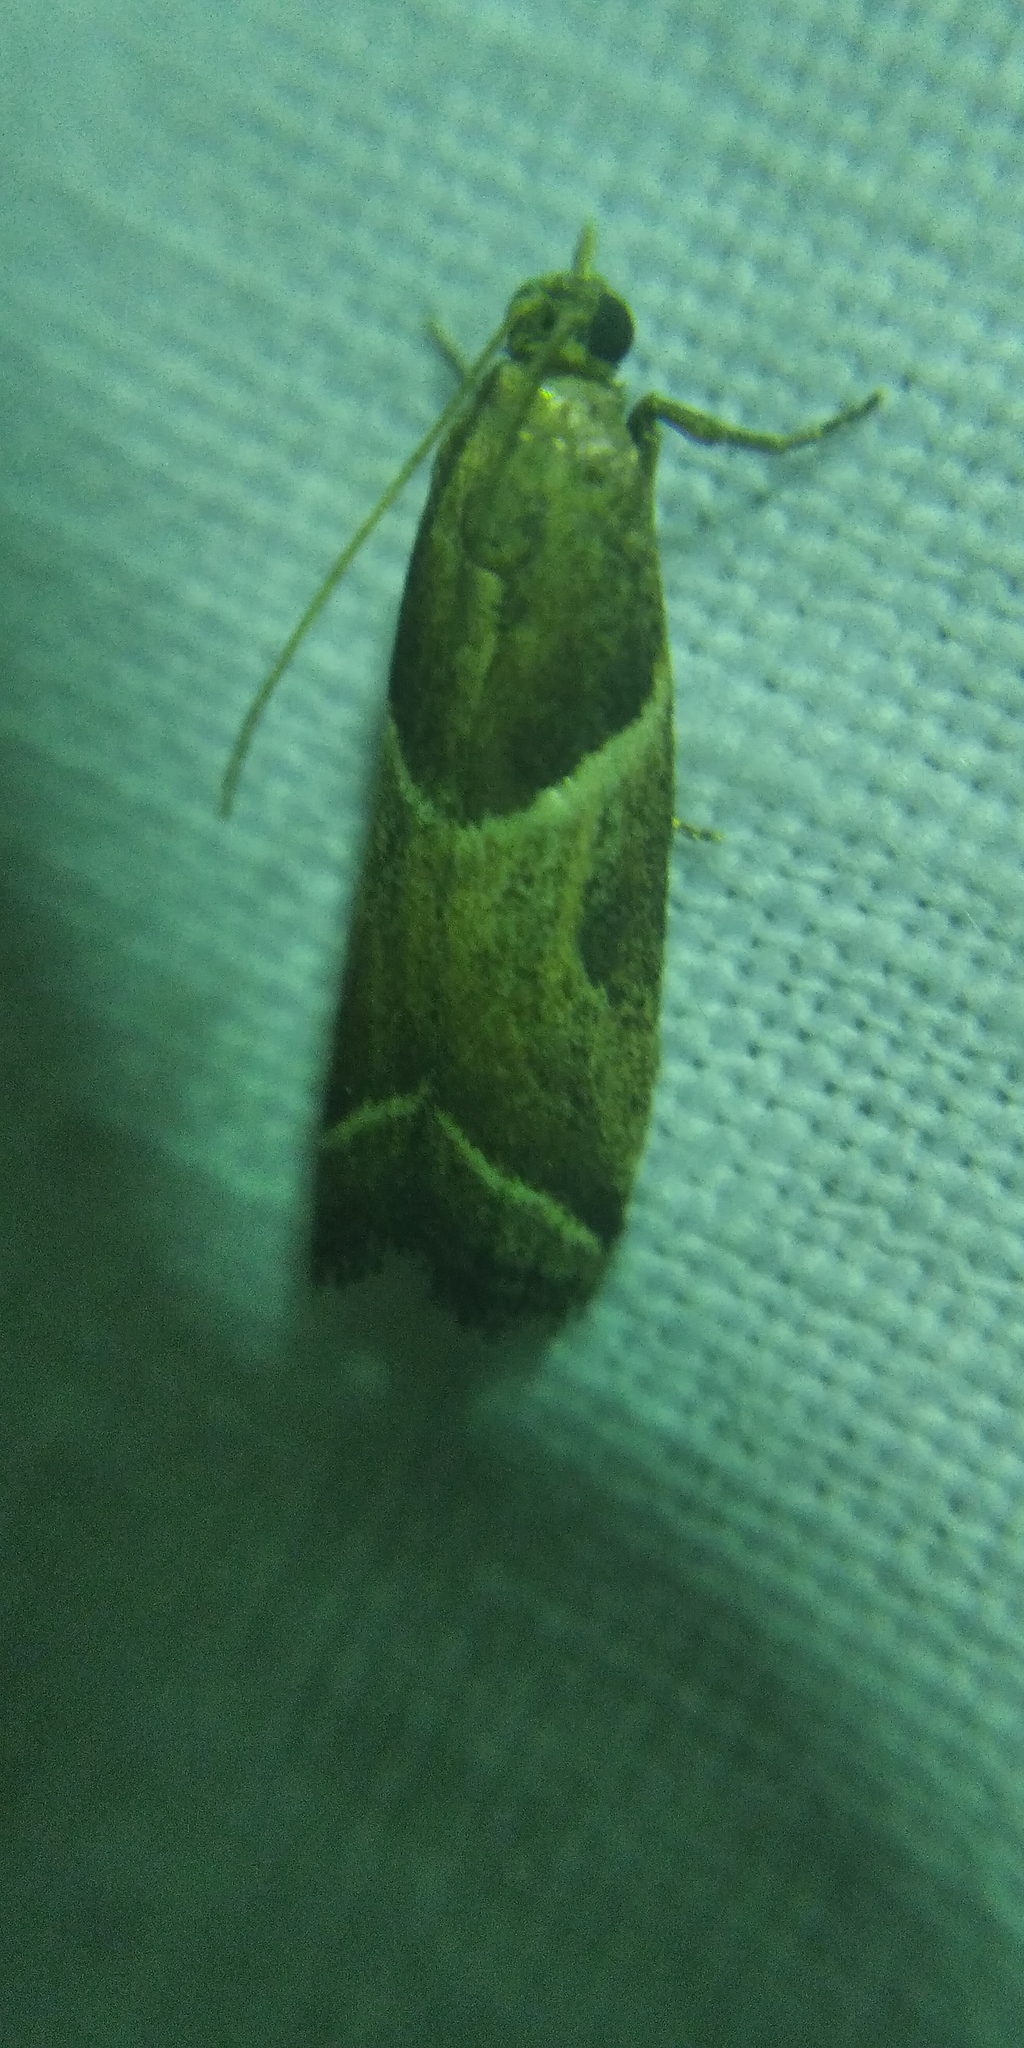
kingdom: Animalia
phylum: Arthropoda
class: Insecta
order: Lepidoptera
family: Pyralidae
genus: Nyctegretis
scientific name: Nyctegretis lineana
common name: Agate knot-horn
